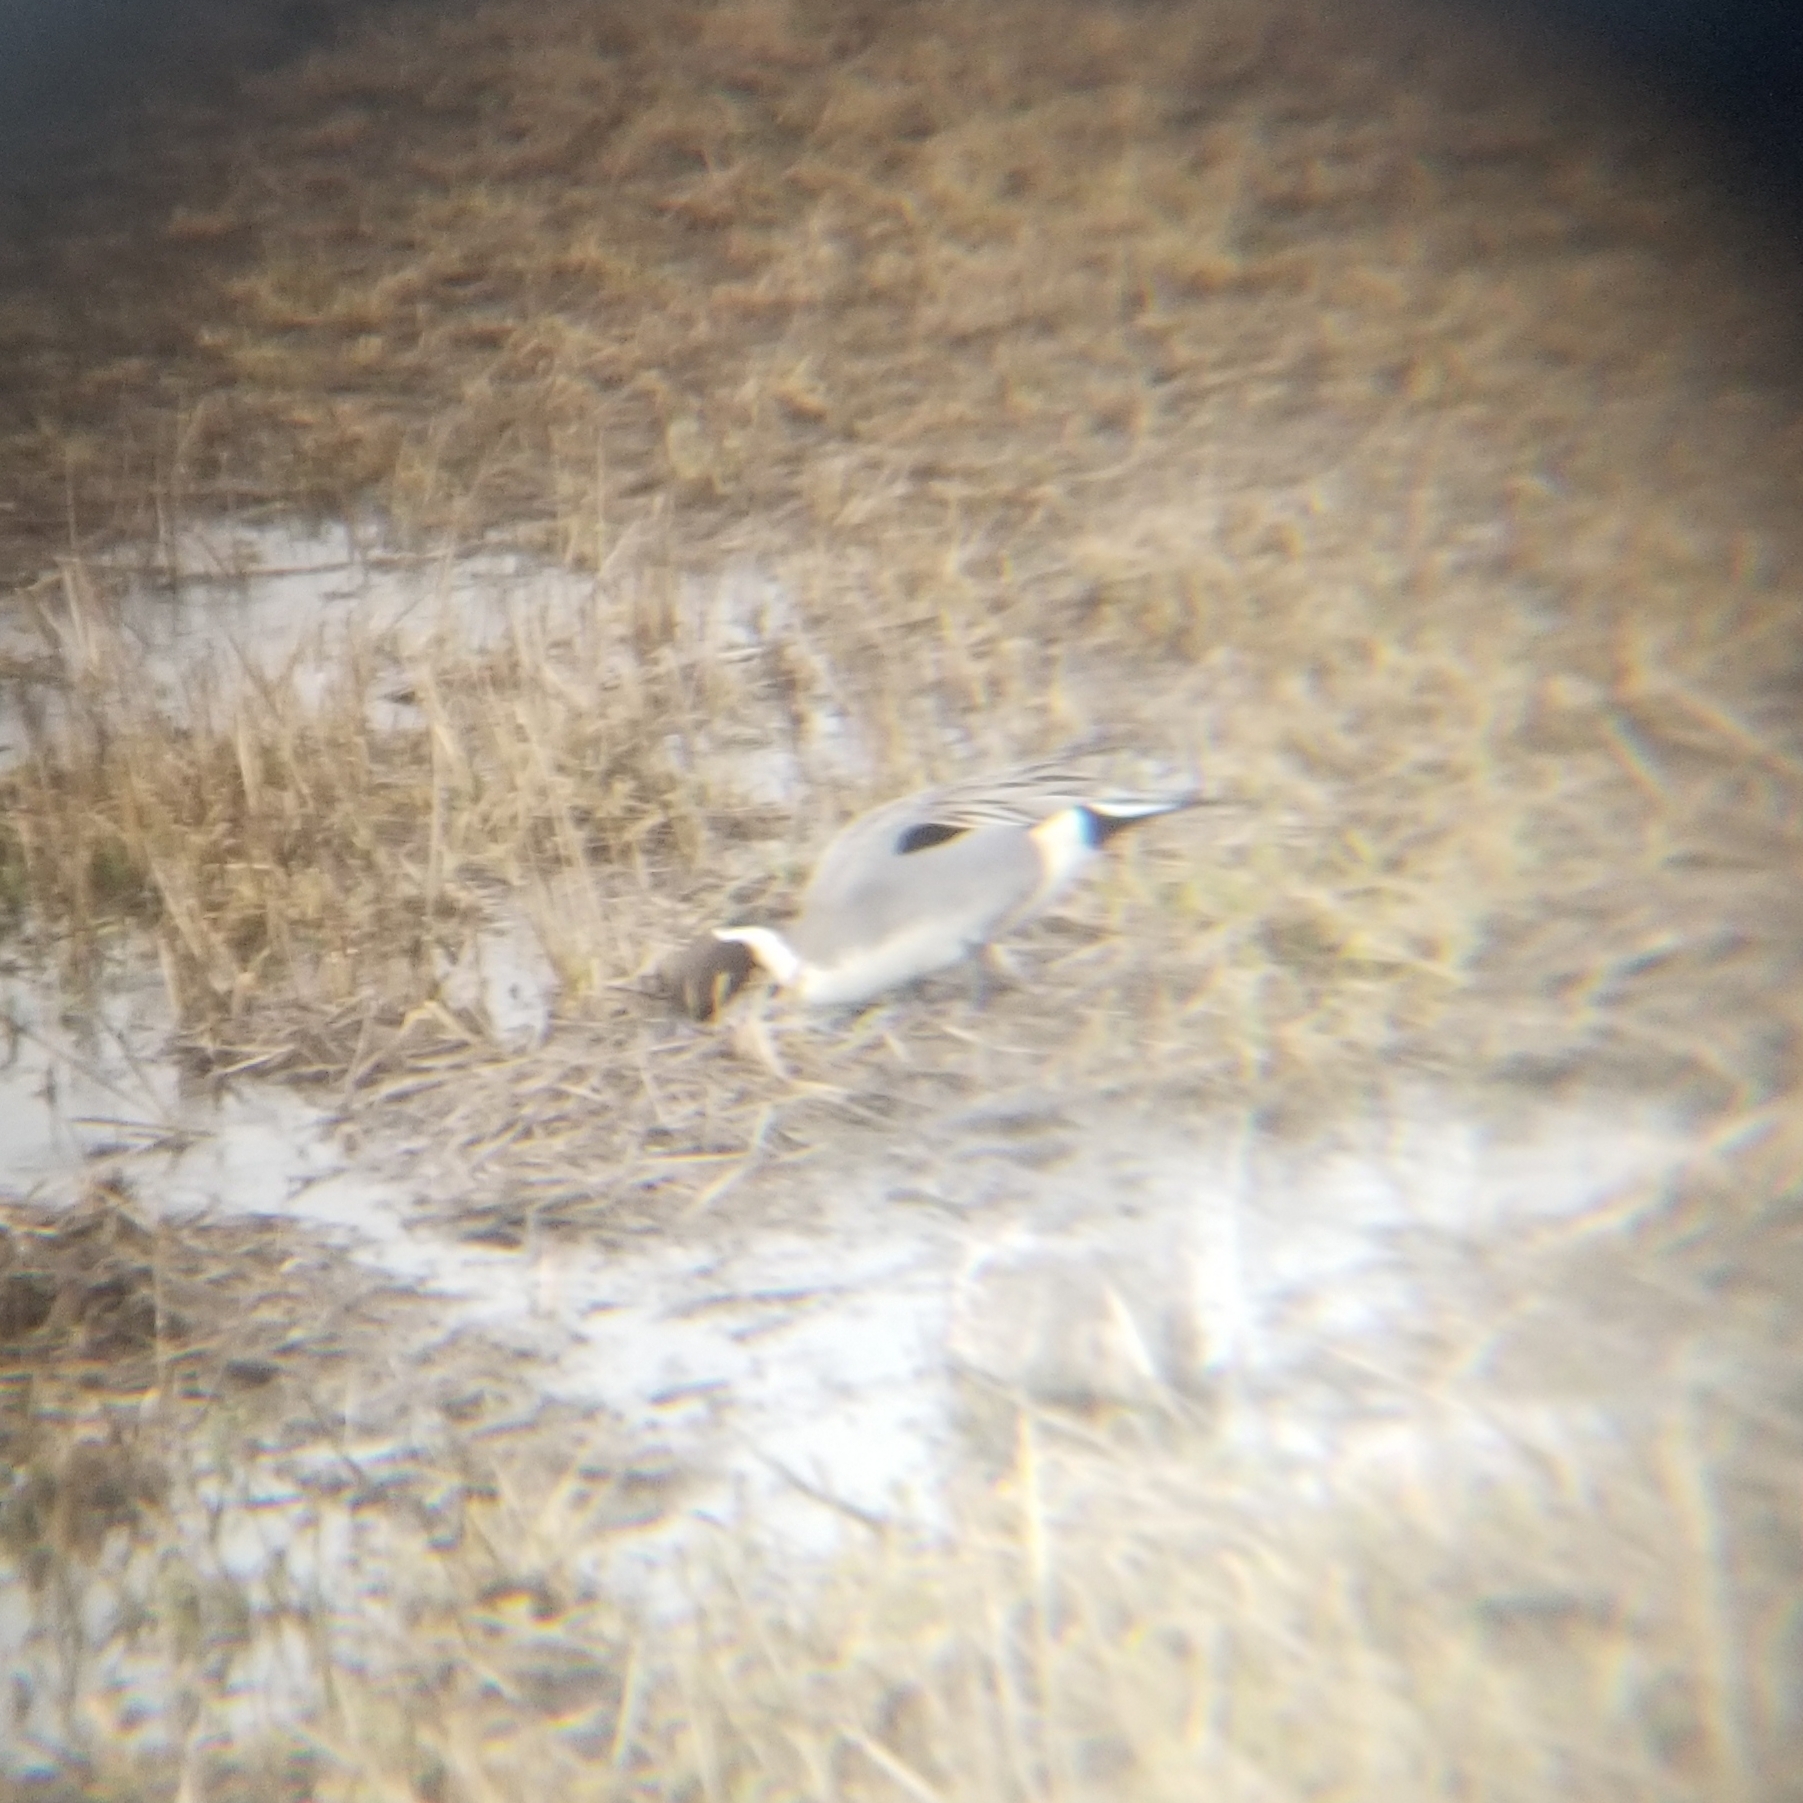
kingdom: Animalia
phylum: Chordata
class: Aves
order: Anseriformes
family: Anatidae
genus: Anas
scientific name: Anas acuta
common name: Northern pintail
